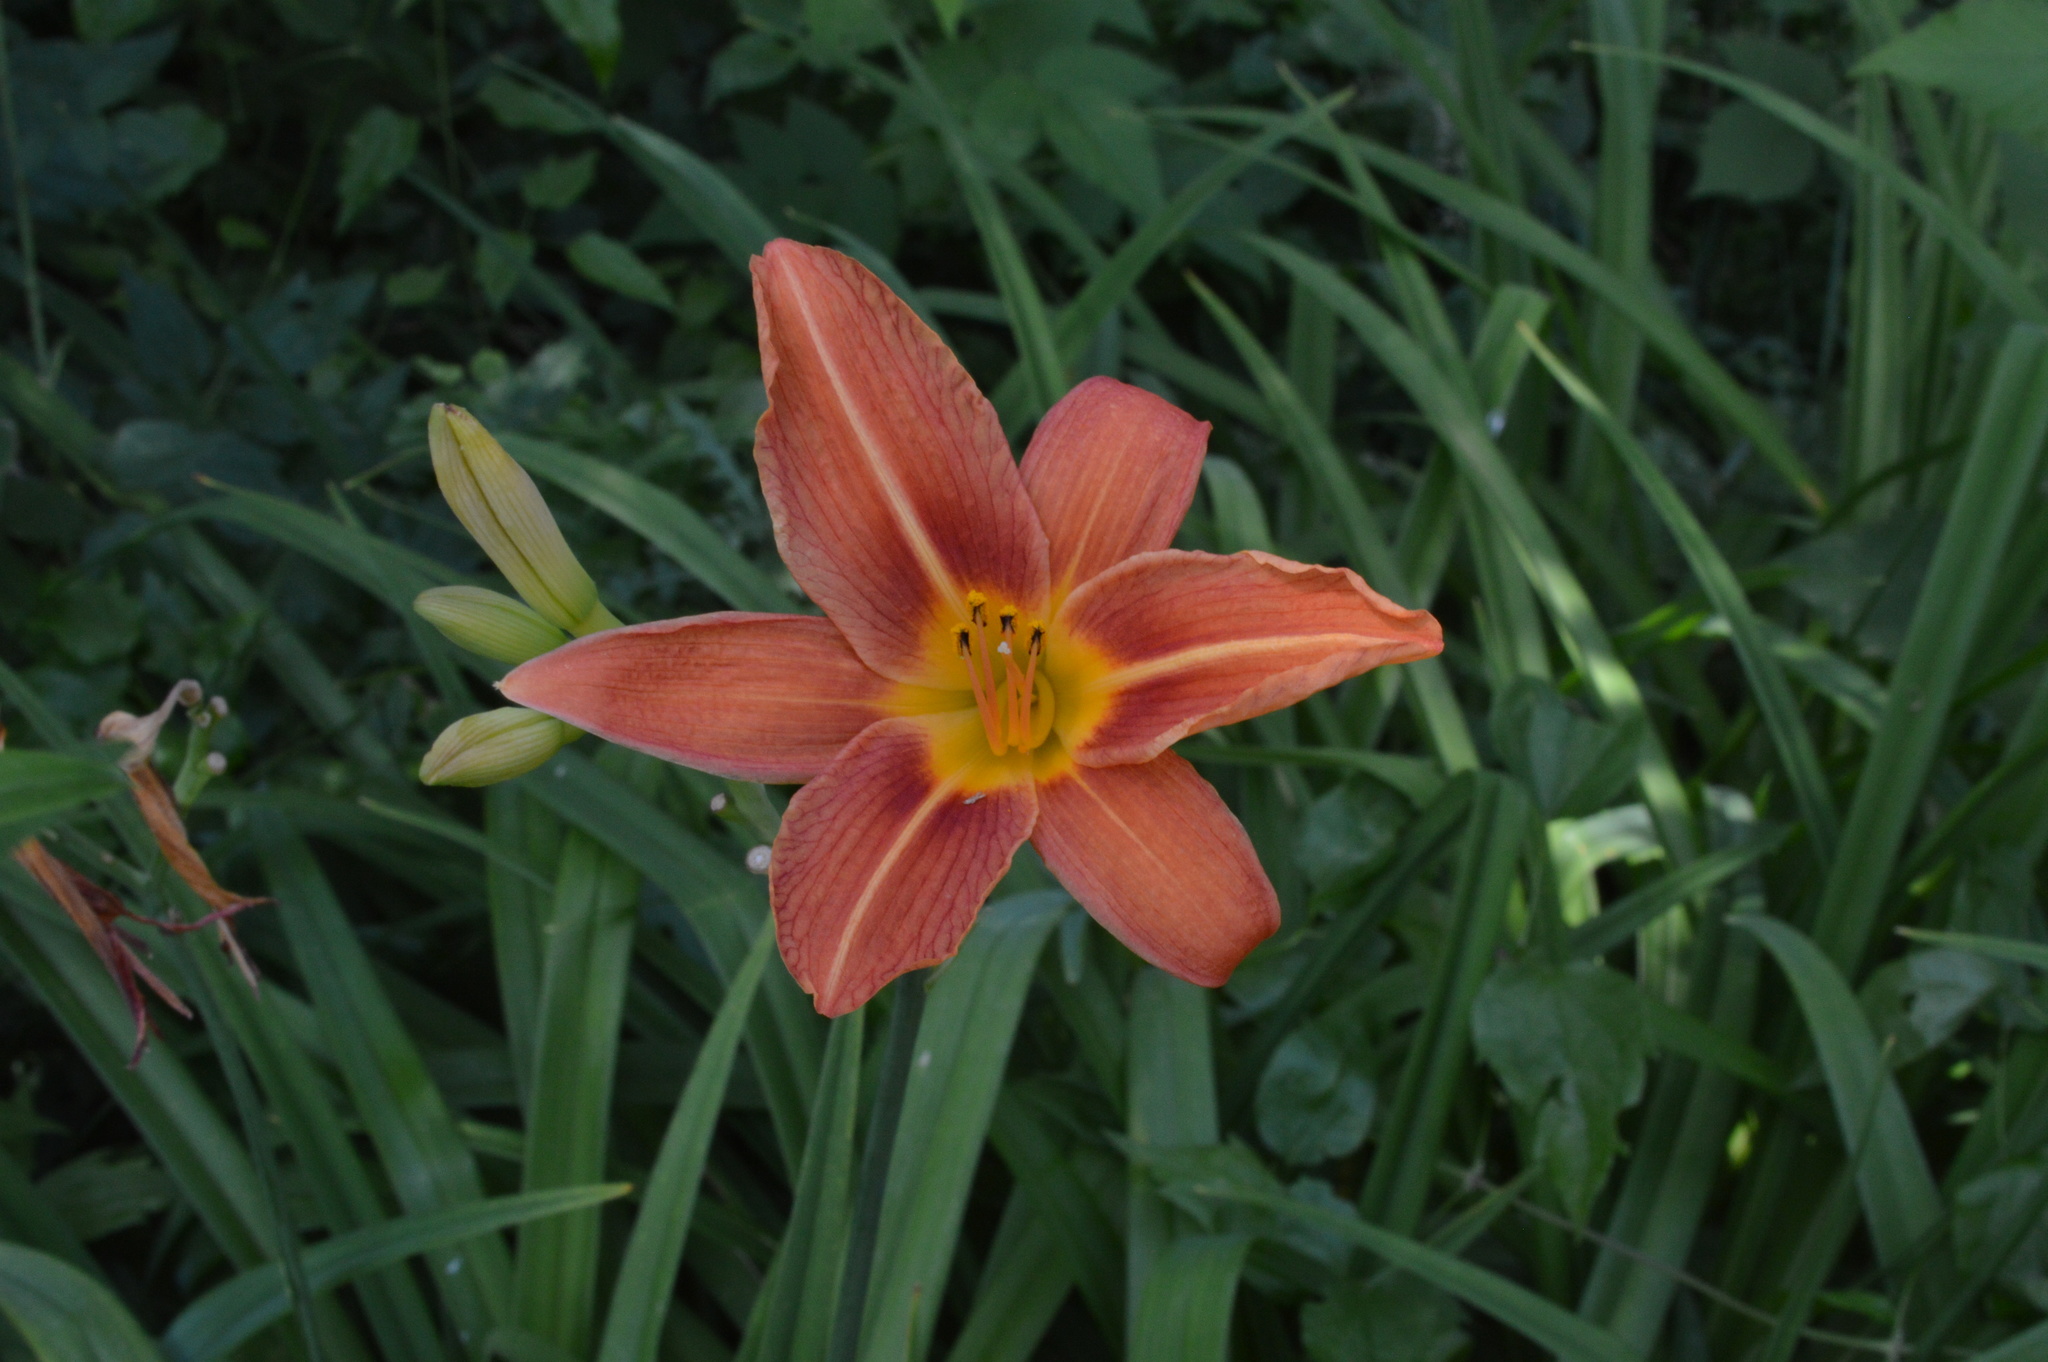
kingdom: Plantae
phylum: Tracheophyta
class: Liliopsida
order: Asparagales
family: Asphodelaceae
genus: Hemerocallis
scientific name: Hemerocallis fulva
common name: Orange day-lily
